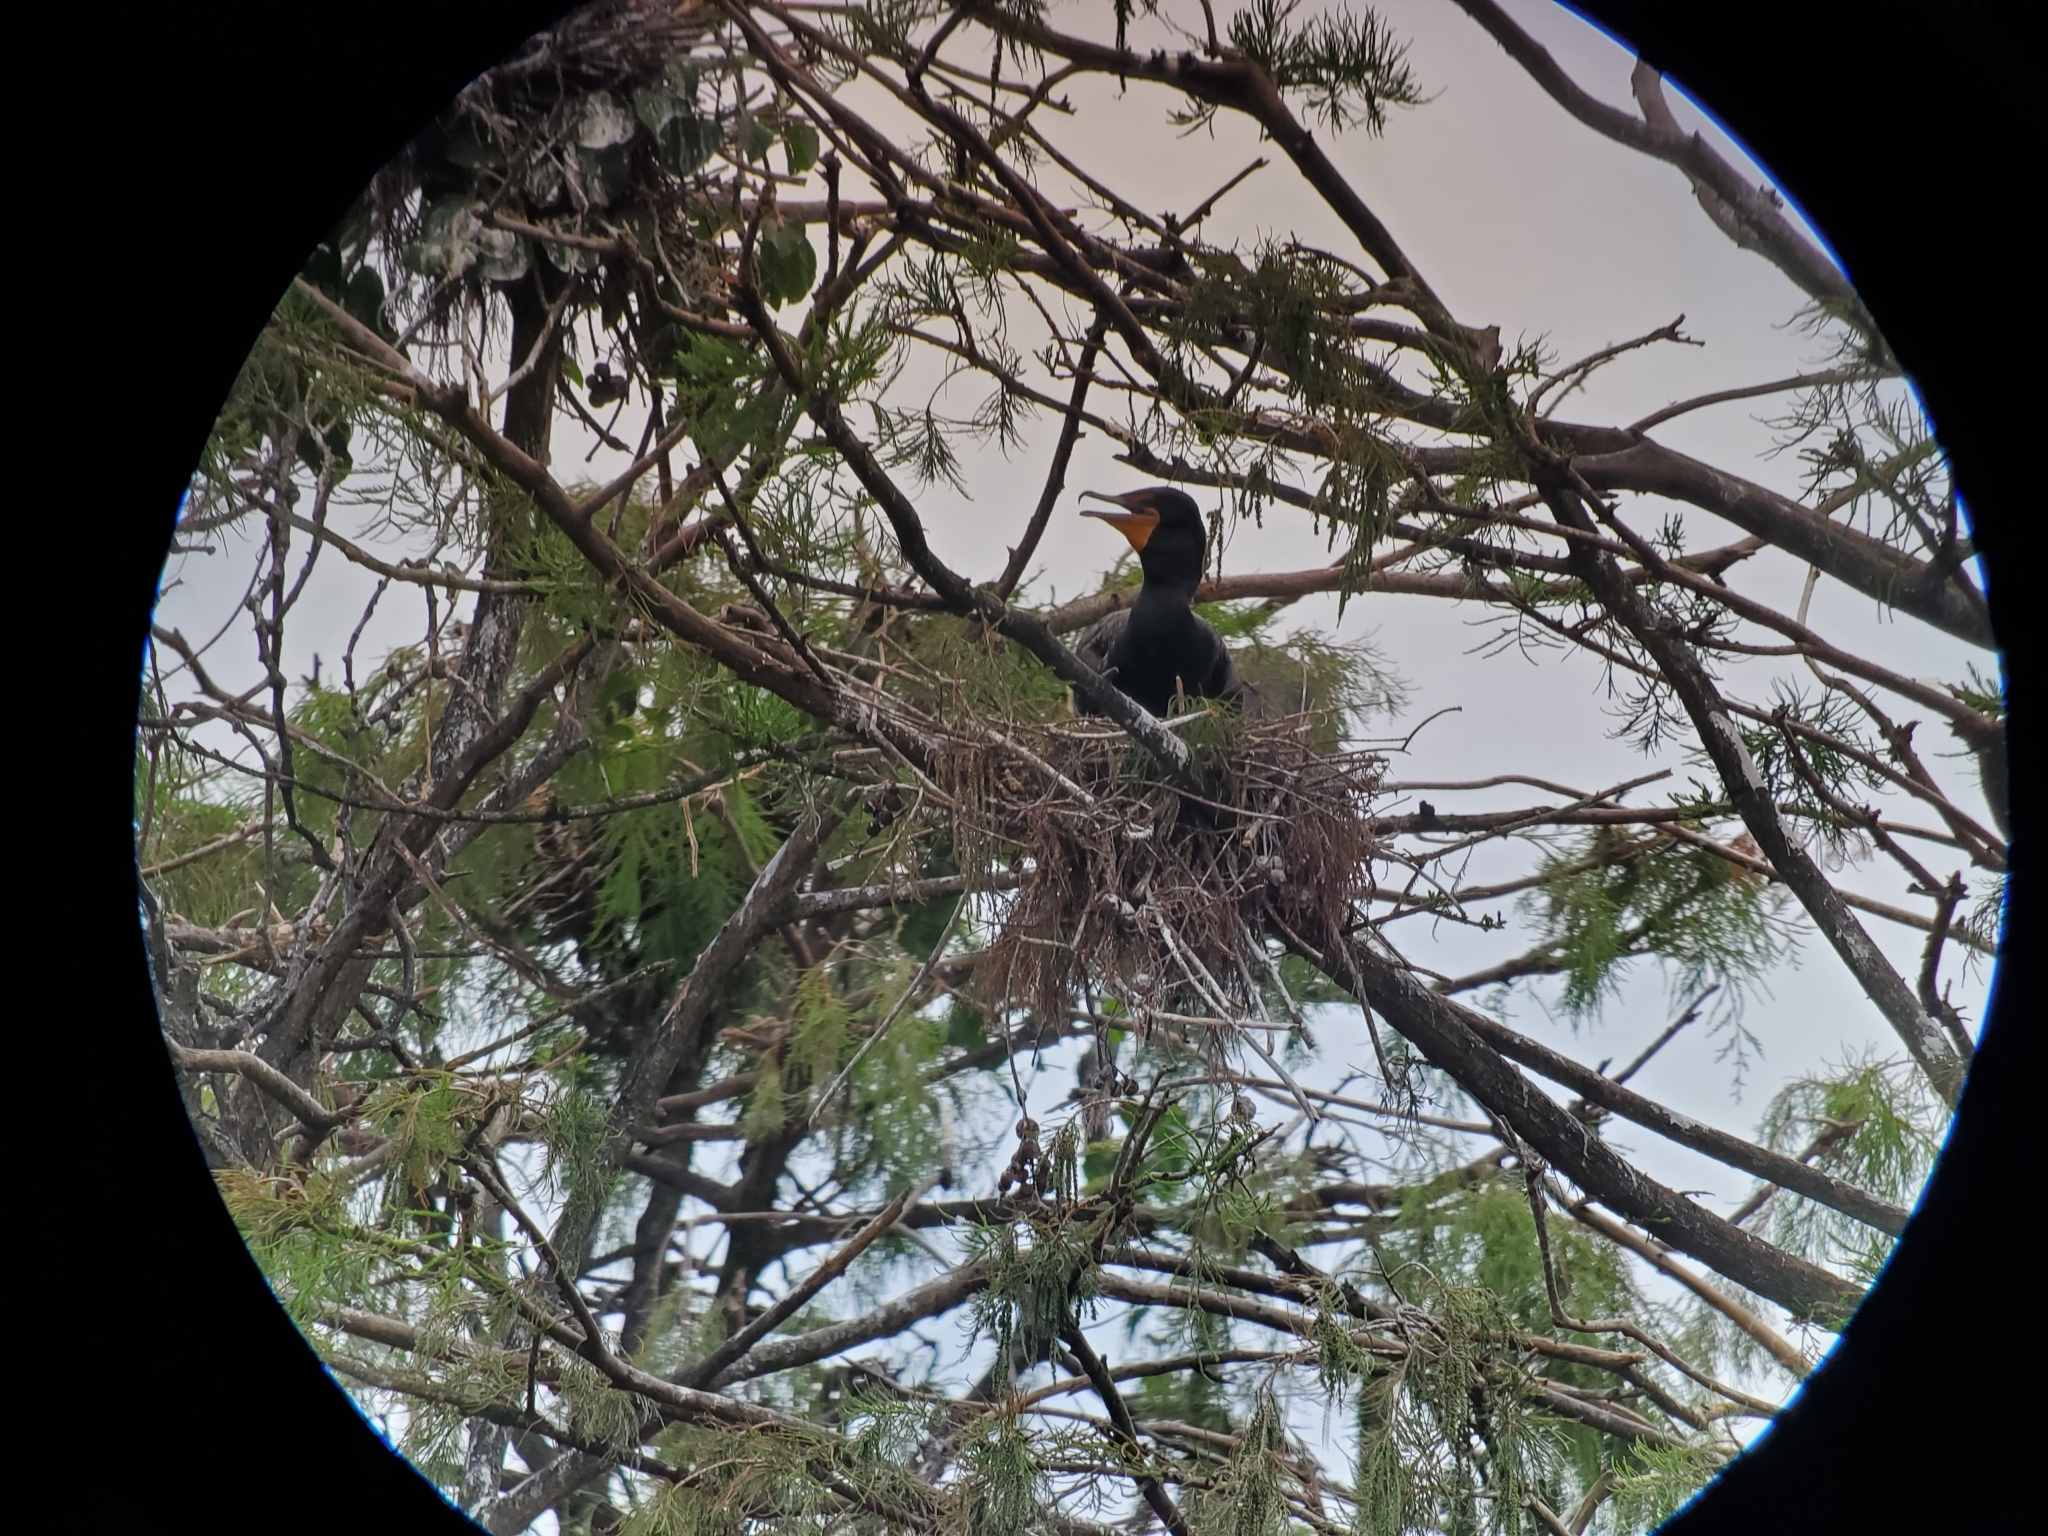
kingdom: Animalia
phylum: Chordata
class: Aves
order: Suliformes
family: Phalacrocoracidae
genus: Phalacrocorax
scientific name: Phalacrocorax auritus
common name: Double-crested cormorant
